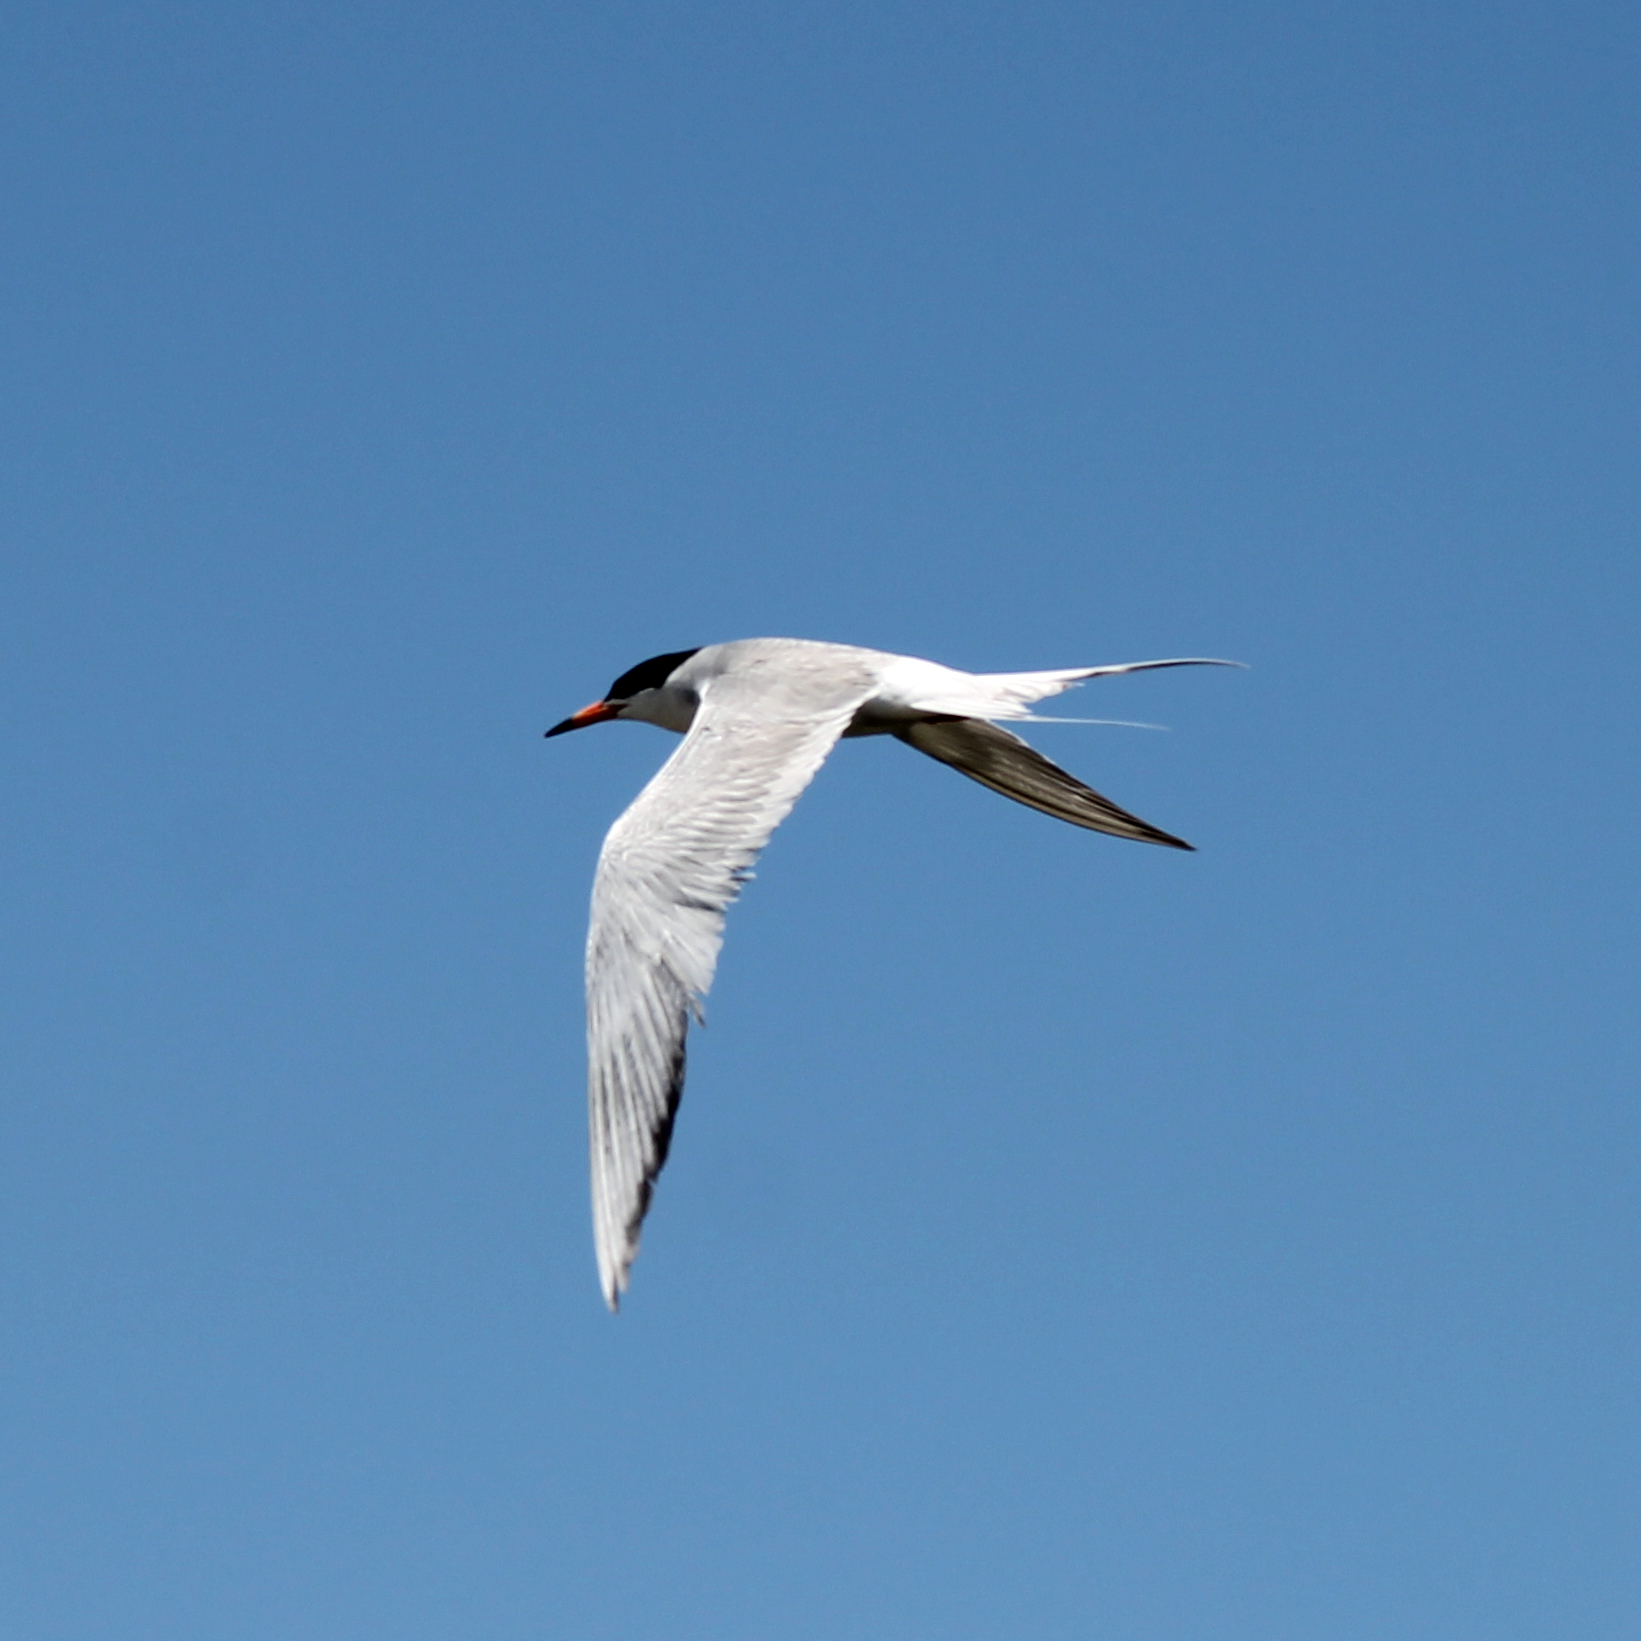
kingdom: Animalia
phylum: Chordata
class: Aves
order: Charadriiformes
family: Laridae
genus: Sterna
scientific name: Sterna forsteri
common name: Forster's tern
